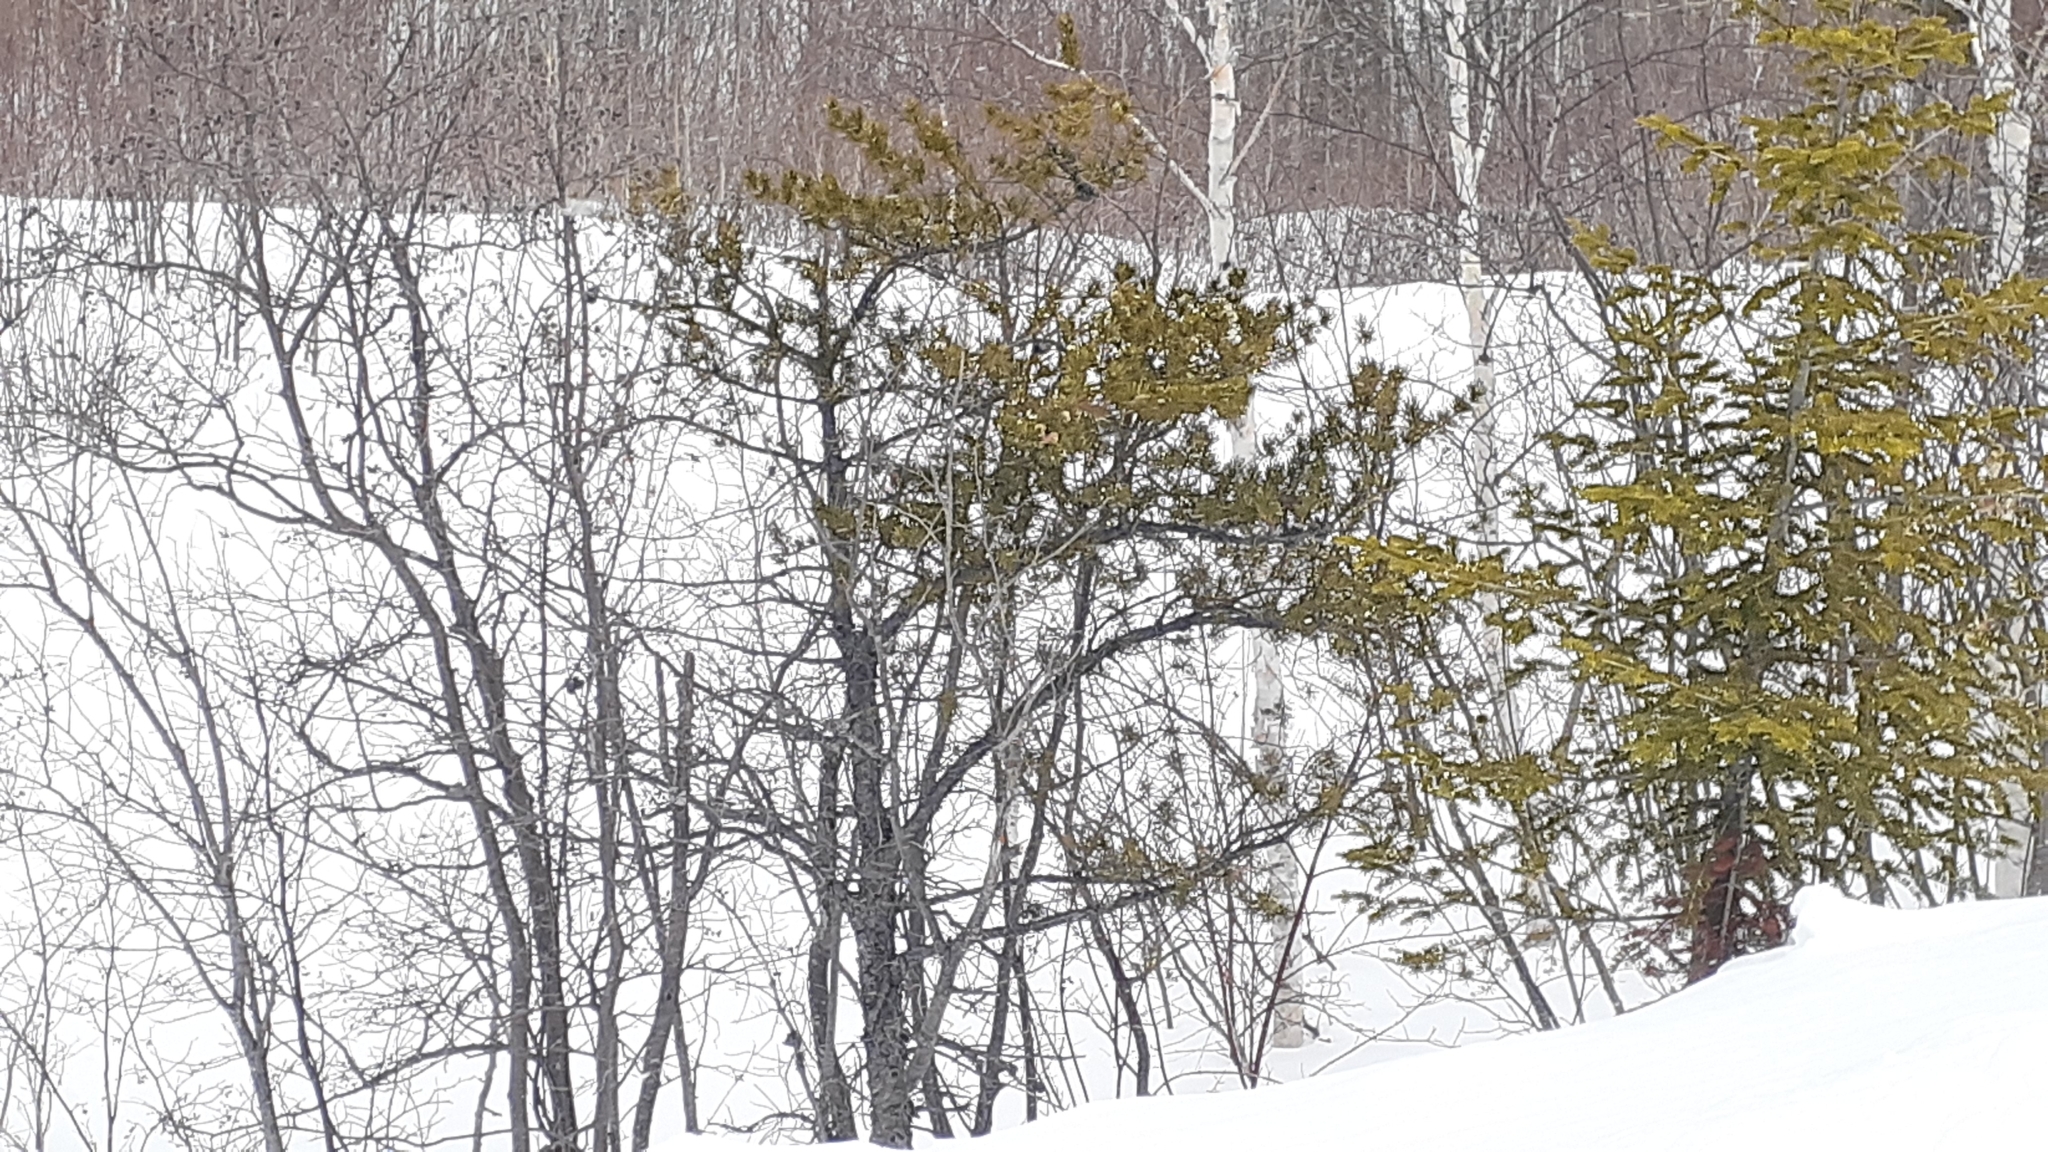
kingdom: Plantae
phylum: Tracheophyta
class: Pinopsida
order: Pinales
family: Pinaceae
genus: Pinus
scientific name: Pinus banksiana
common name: Jack pine
